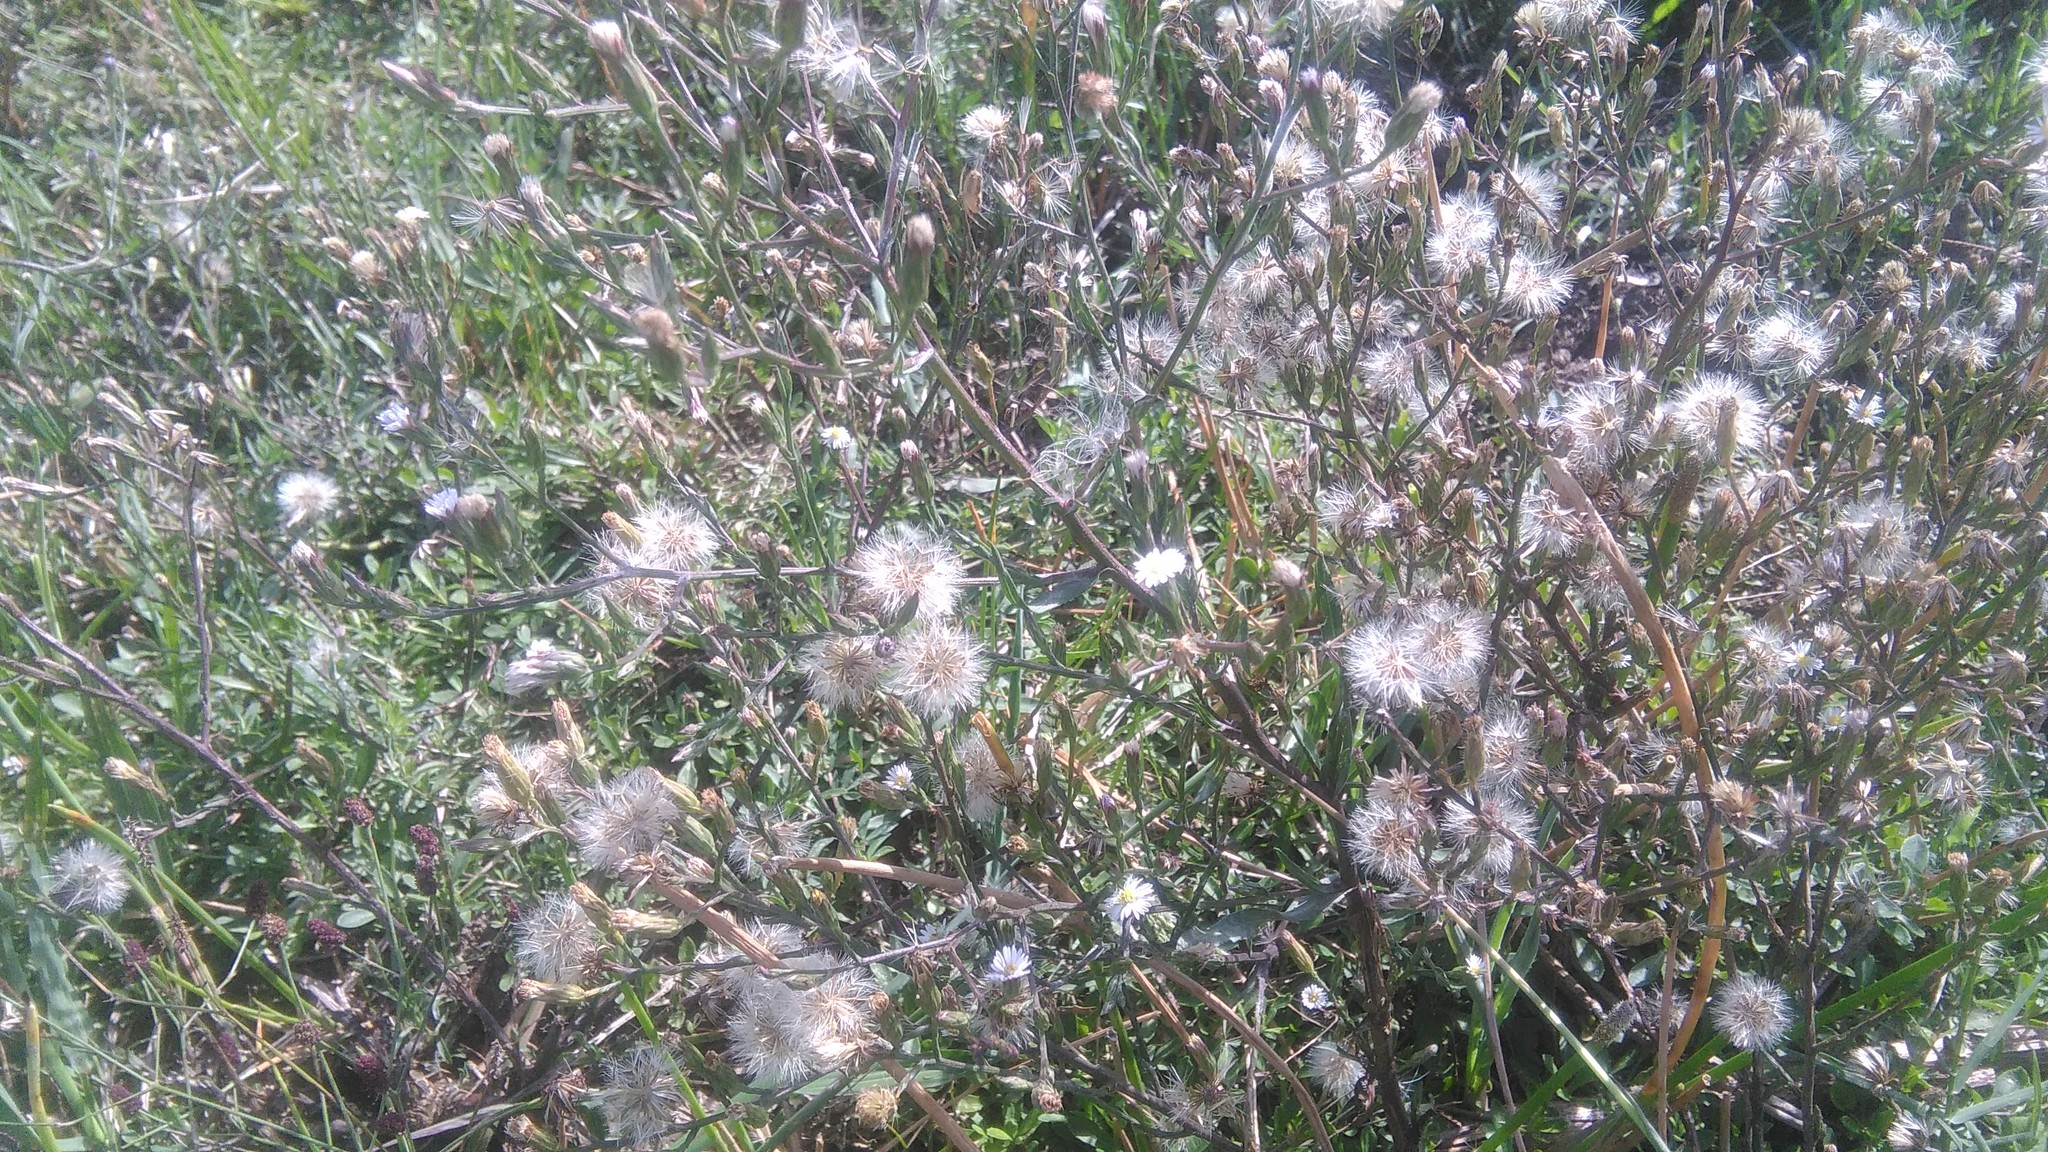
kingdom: Plantae
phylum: Tracheophyta
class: Magnoliopsida
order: Asterales
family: Asteraceae
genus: Symphyotrichum
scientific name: Symphyotrichum squamatum
